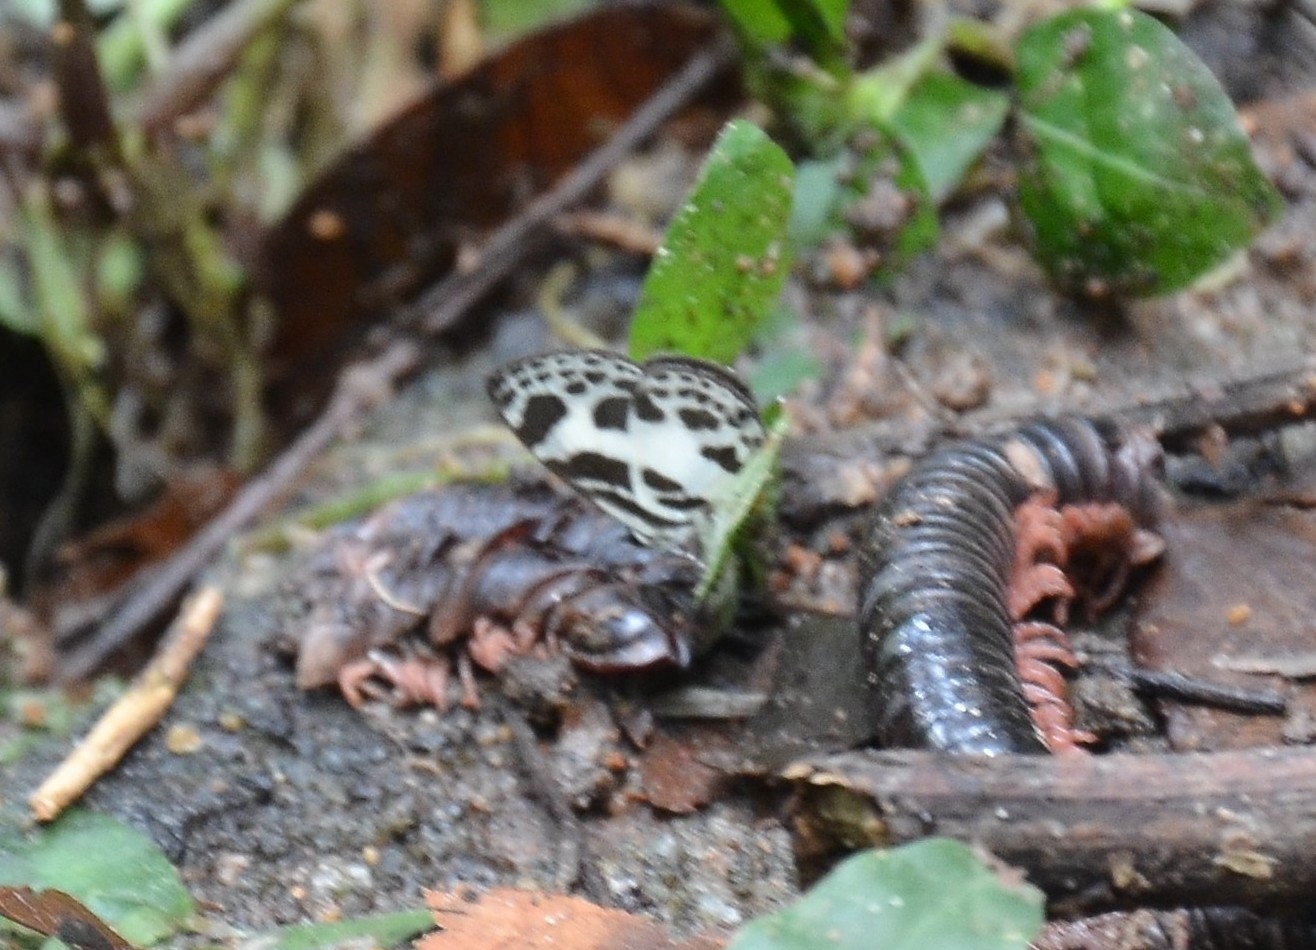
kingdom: Animalia
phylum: Arthropoda
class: Insecta
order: Lepidoptera
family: Lycaenidae
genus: Discolampa
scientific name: Discolampa ethion
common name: Banded blue pierrot
